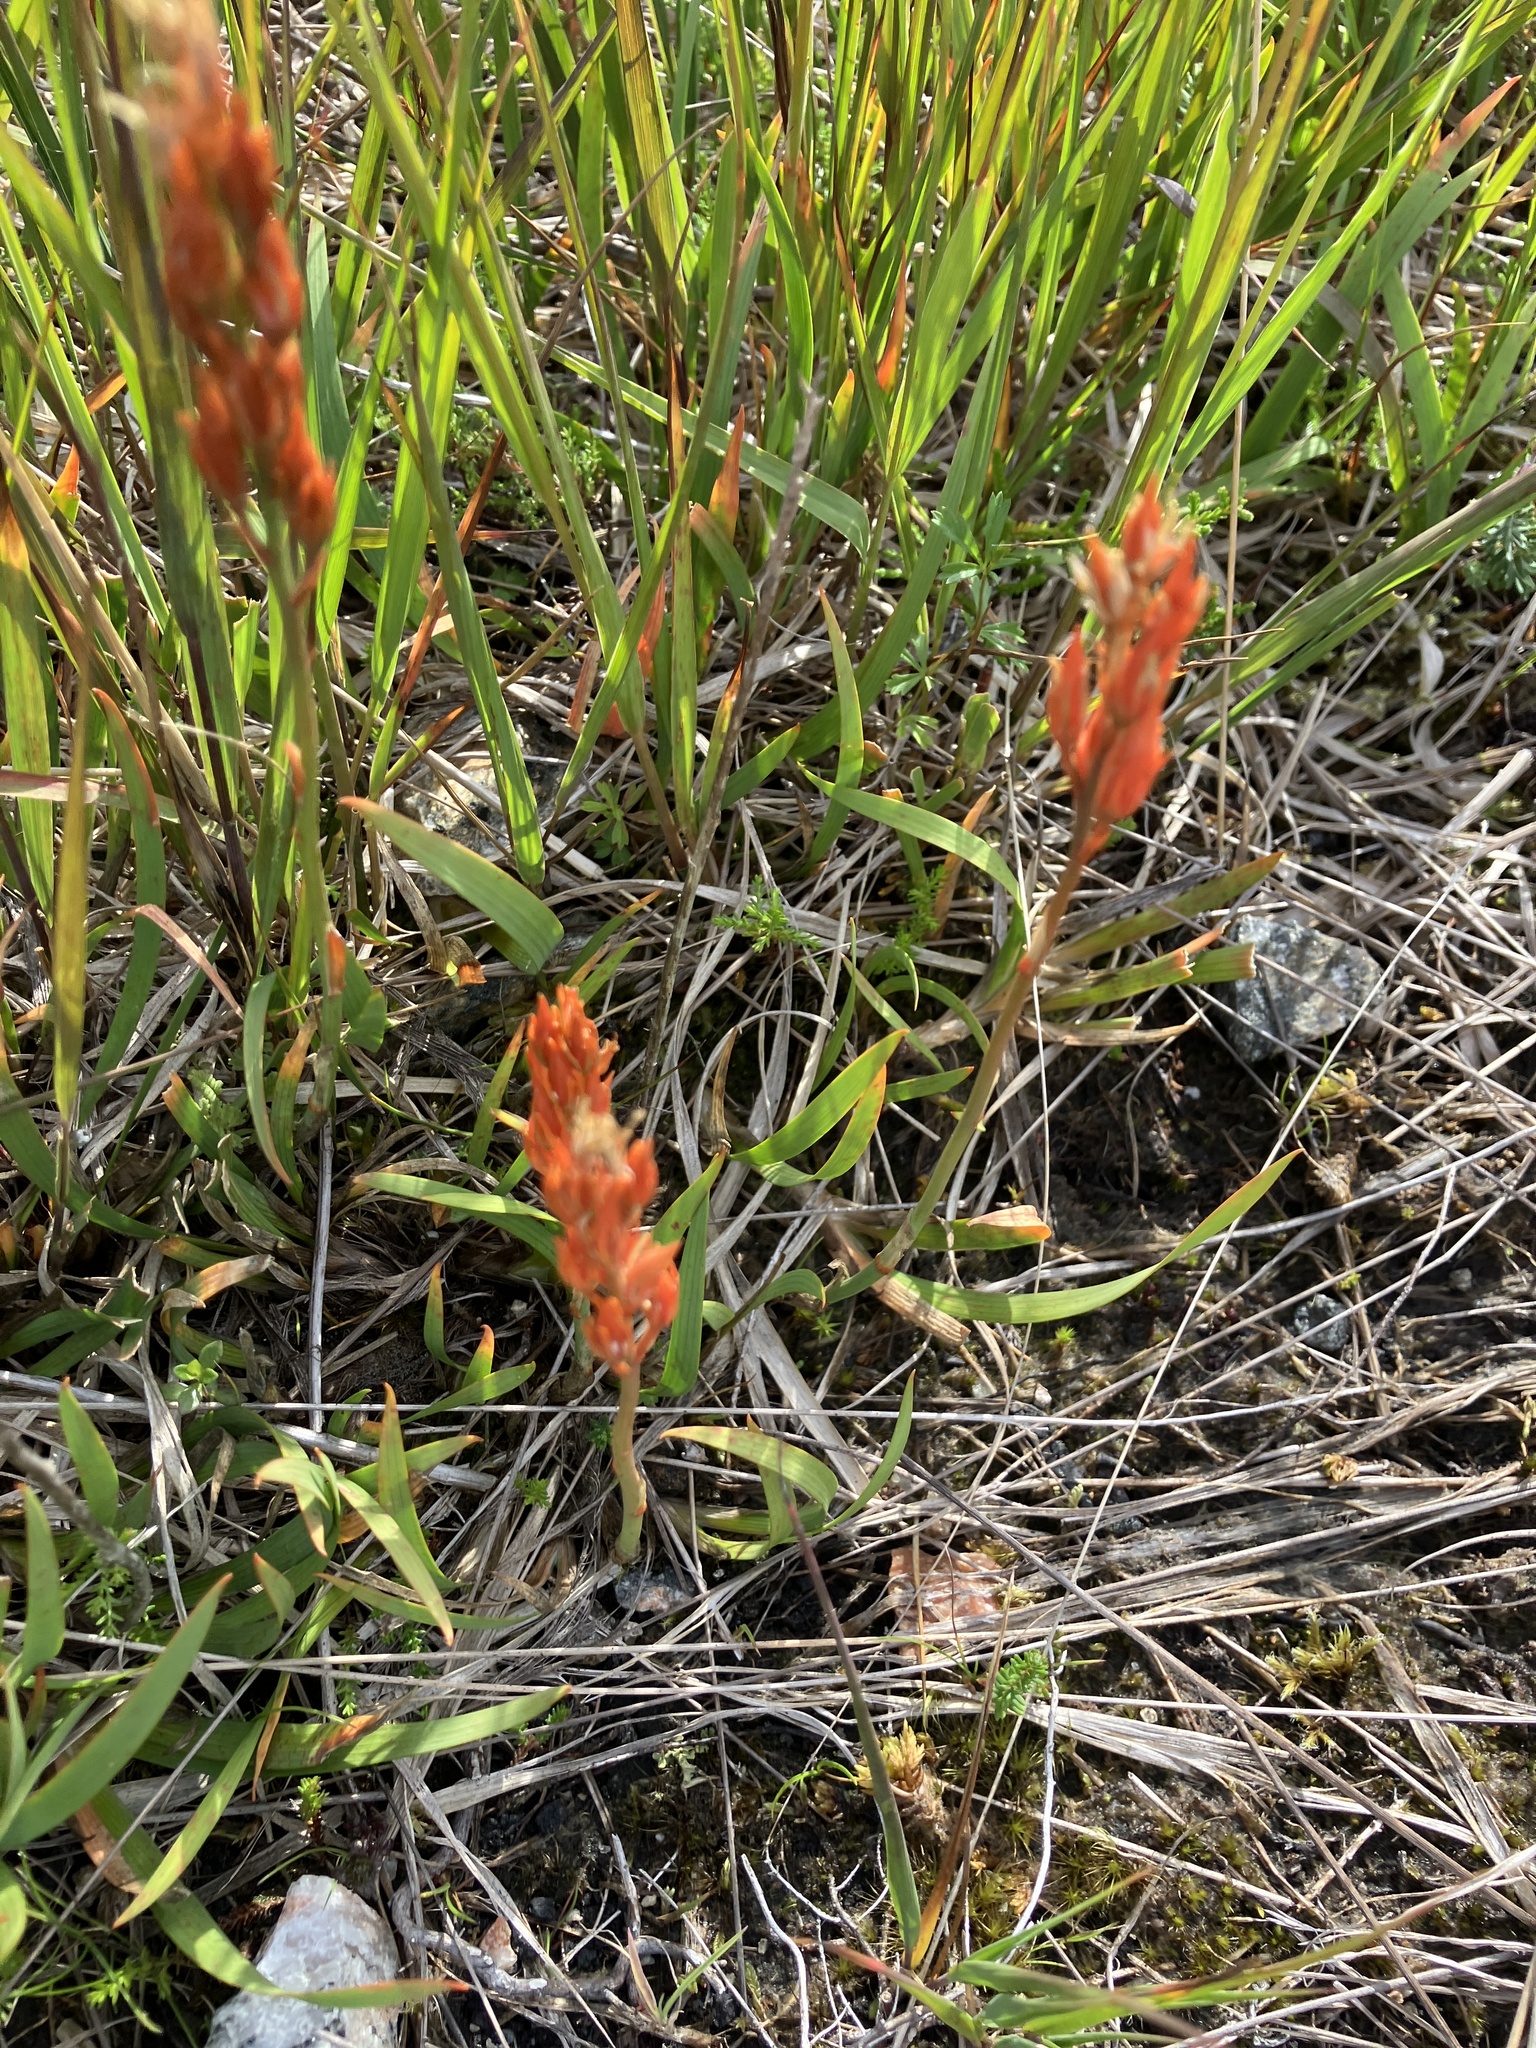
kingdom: Plantae
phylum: Tracheophyta
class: Liliopsida
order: Dioscoreales
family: Nartheciaceae
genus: Narthecium
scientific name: Narthecium ossifragum
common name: Bog asphodel
